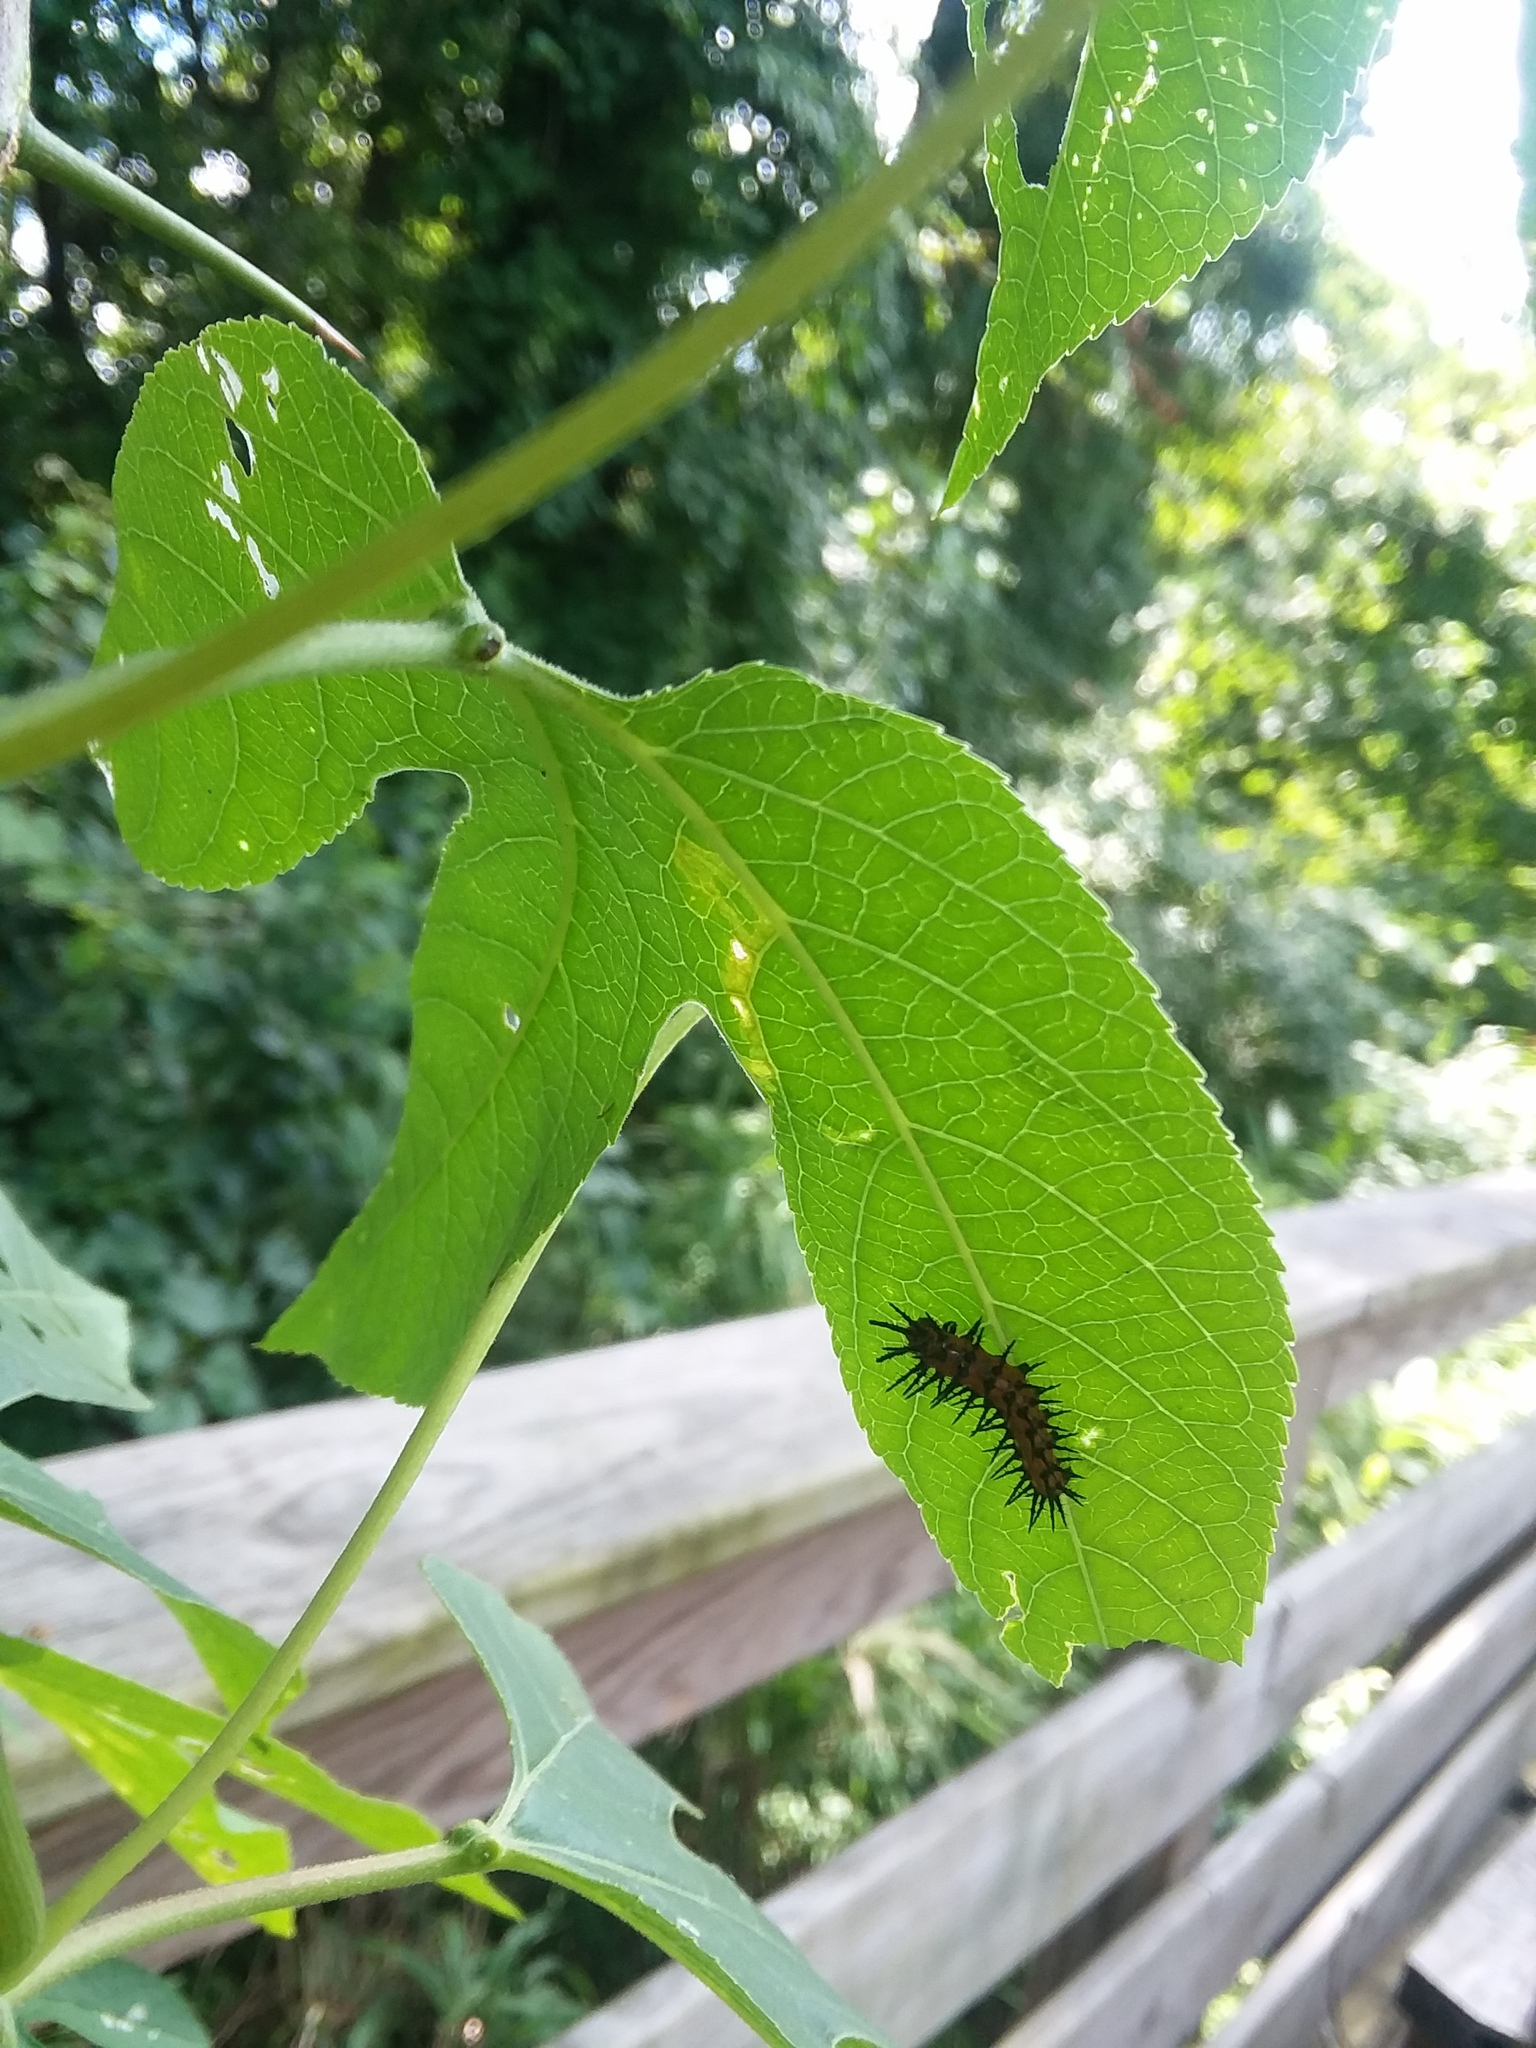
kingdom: Animalia
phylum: Arthropoda
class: Insecta
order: Lepidoptera
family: Nymphalidae
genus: Dione
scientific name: Dione vanillae
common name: Gulf fritillary
